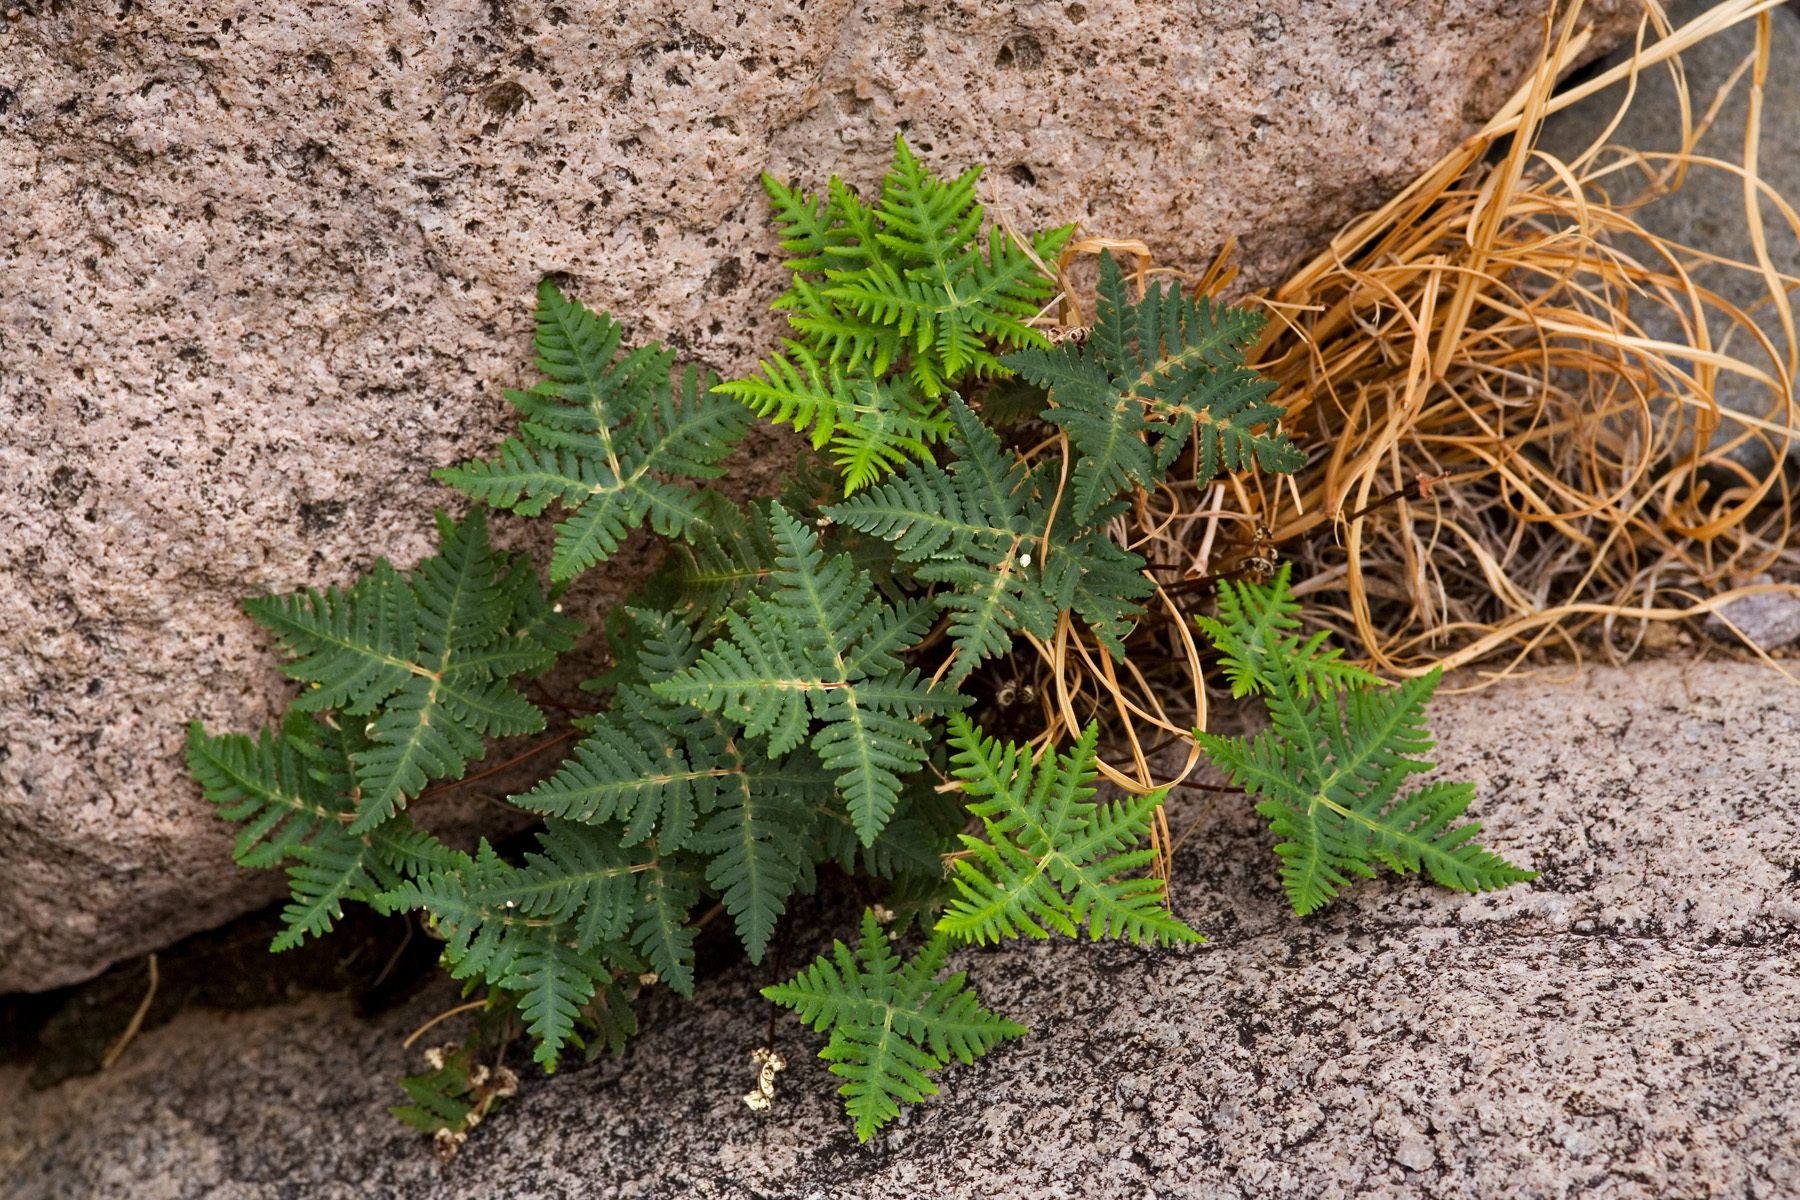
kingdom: Plantae
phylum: Tracheophyta
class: Polypodiopsida
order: Polypodiales
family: Pteridaceae
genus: Notholaena
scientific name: Notholaena standleyi
